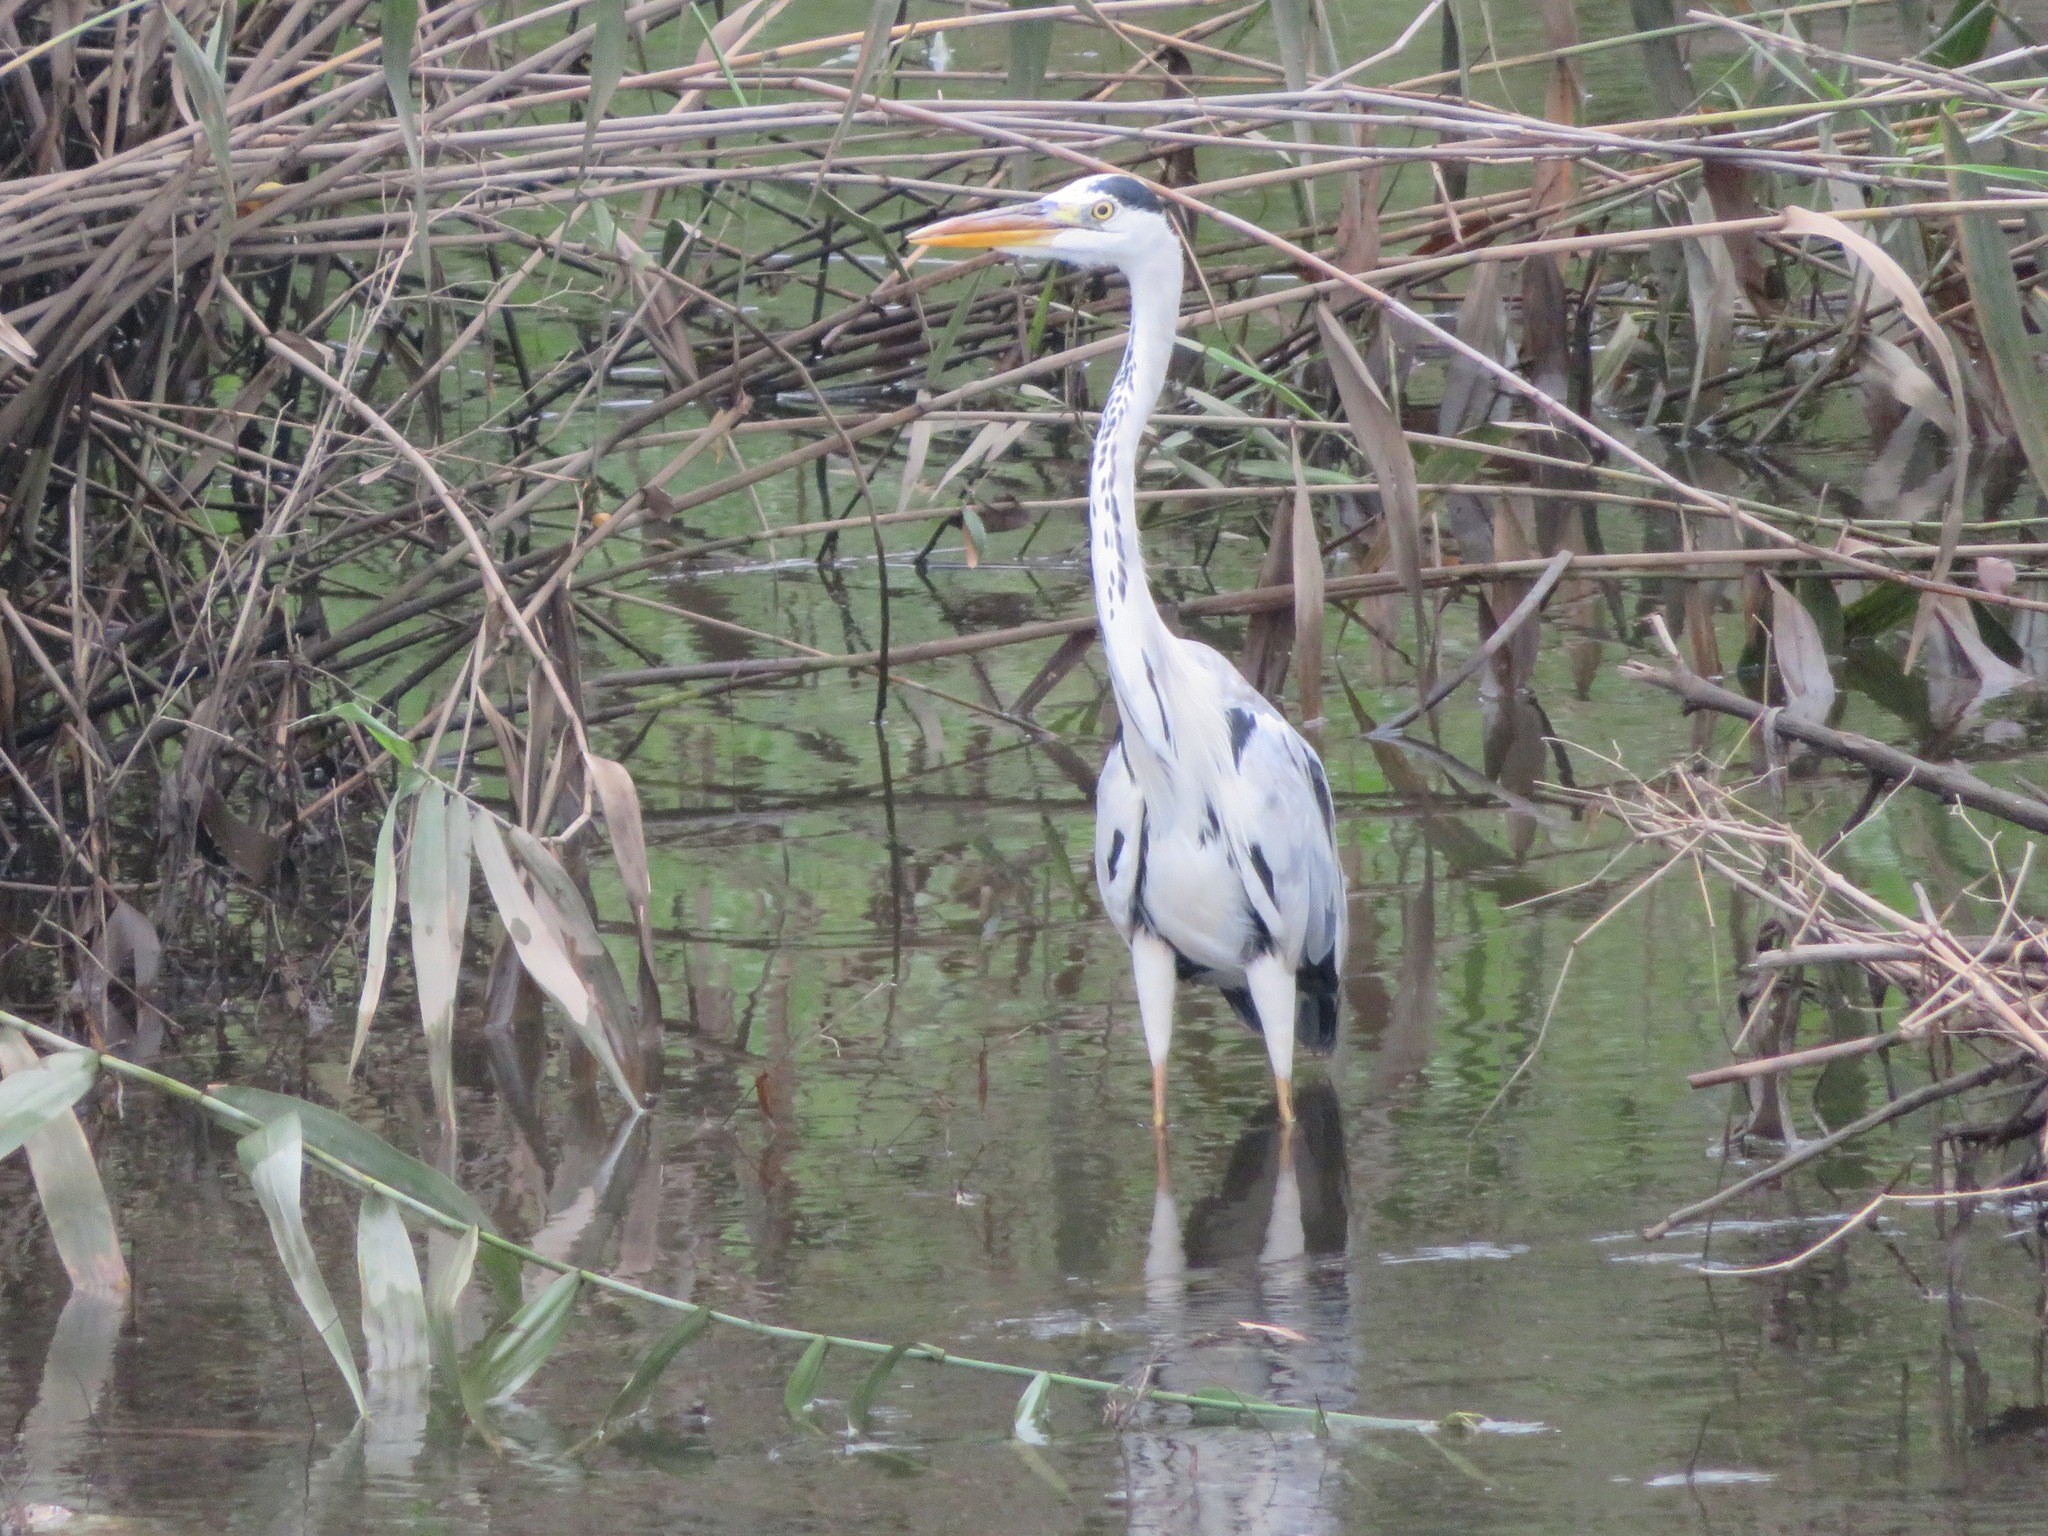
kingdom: Animalia
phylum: Chordata
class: Aves
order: Pelecaniformes
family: Ardeidae
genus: Ardea
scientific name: Ardea cinerea
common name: Grey heron
